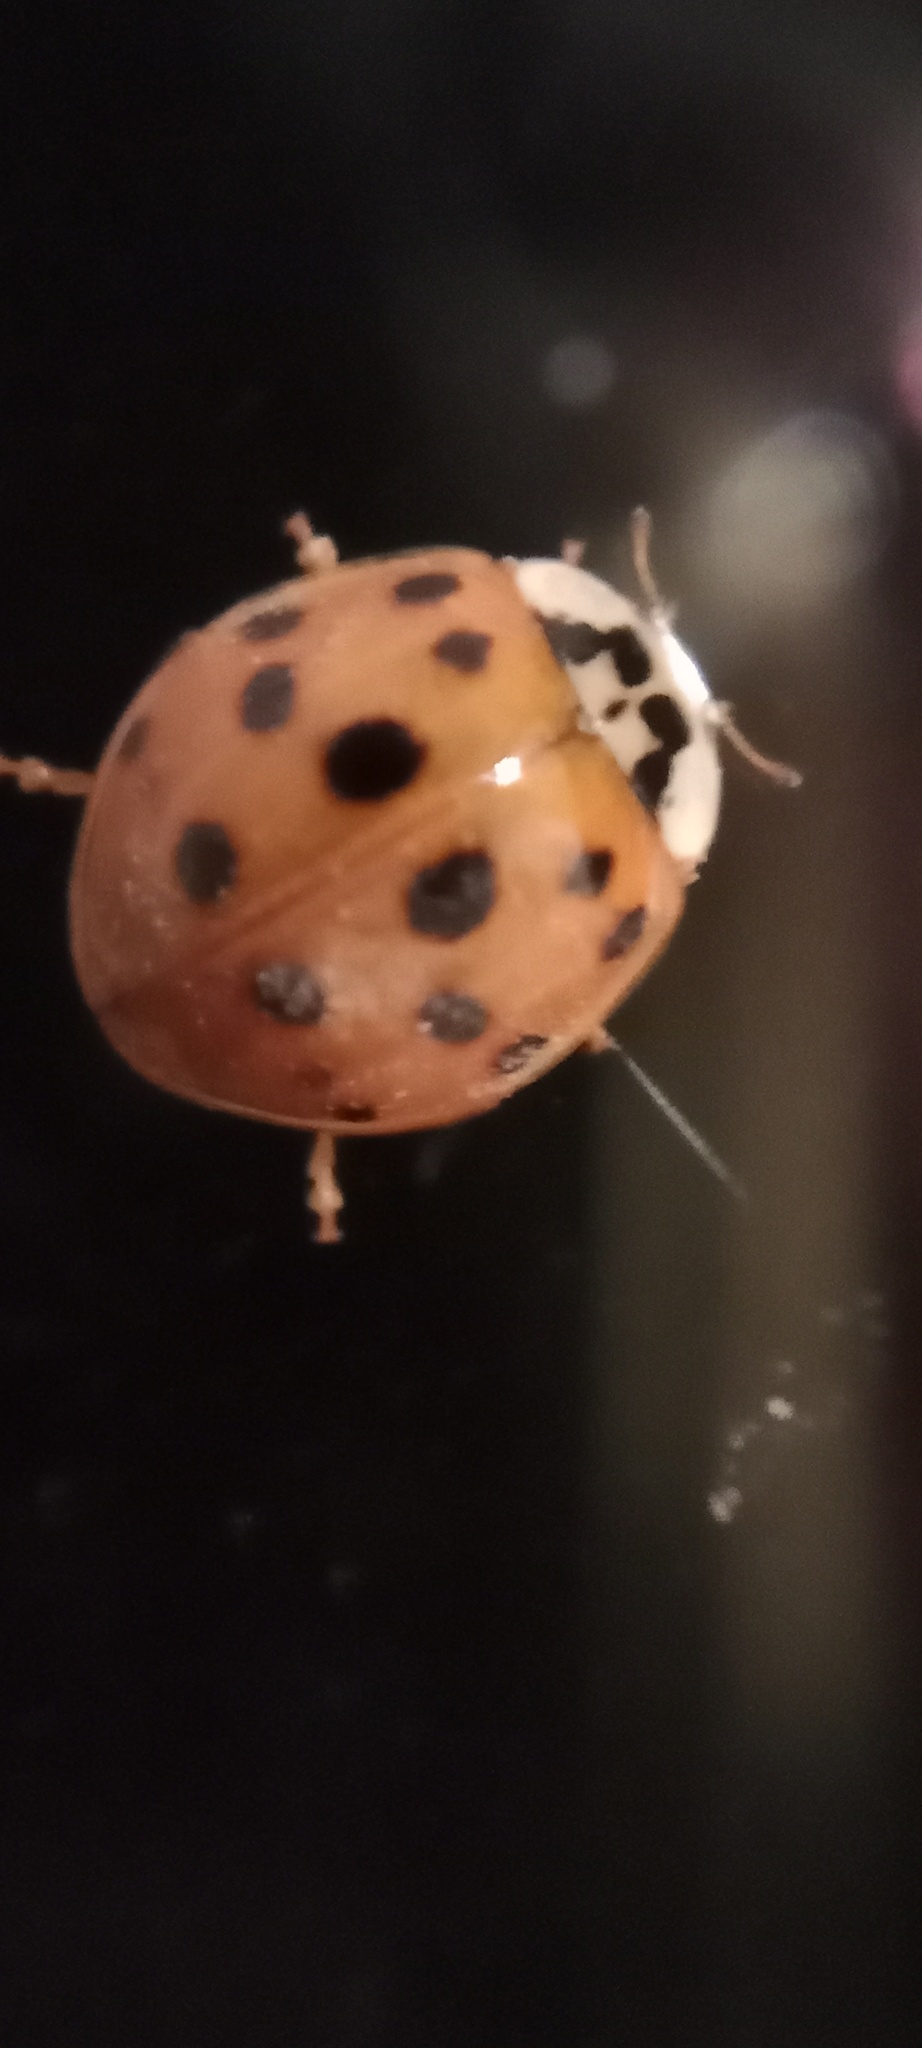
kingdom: Animalia
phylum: Arthropoda
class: Insecta
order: Coleoptera
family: Coccinellidae
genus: Harmonia
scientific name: Harmonia axyridis
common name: Harlequin ladybird
